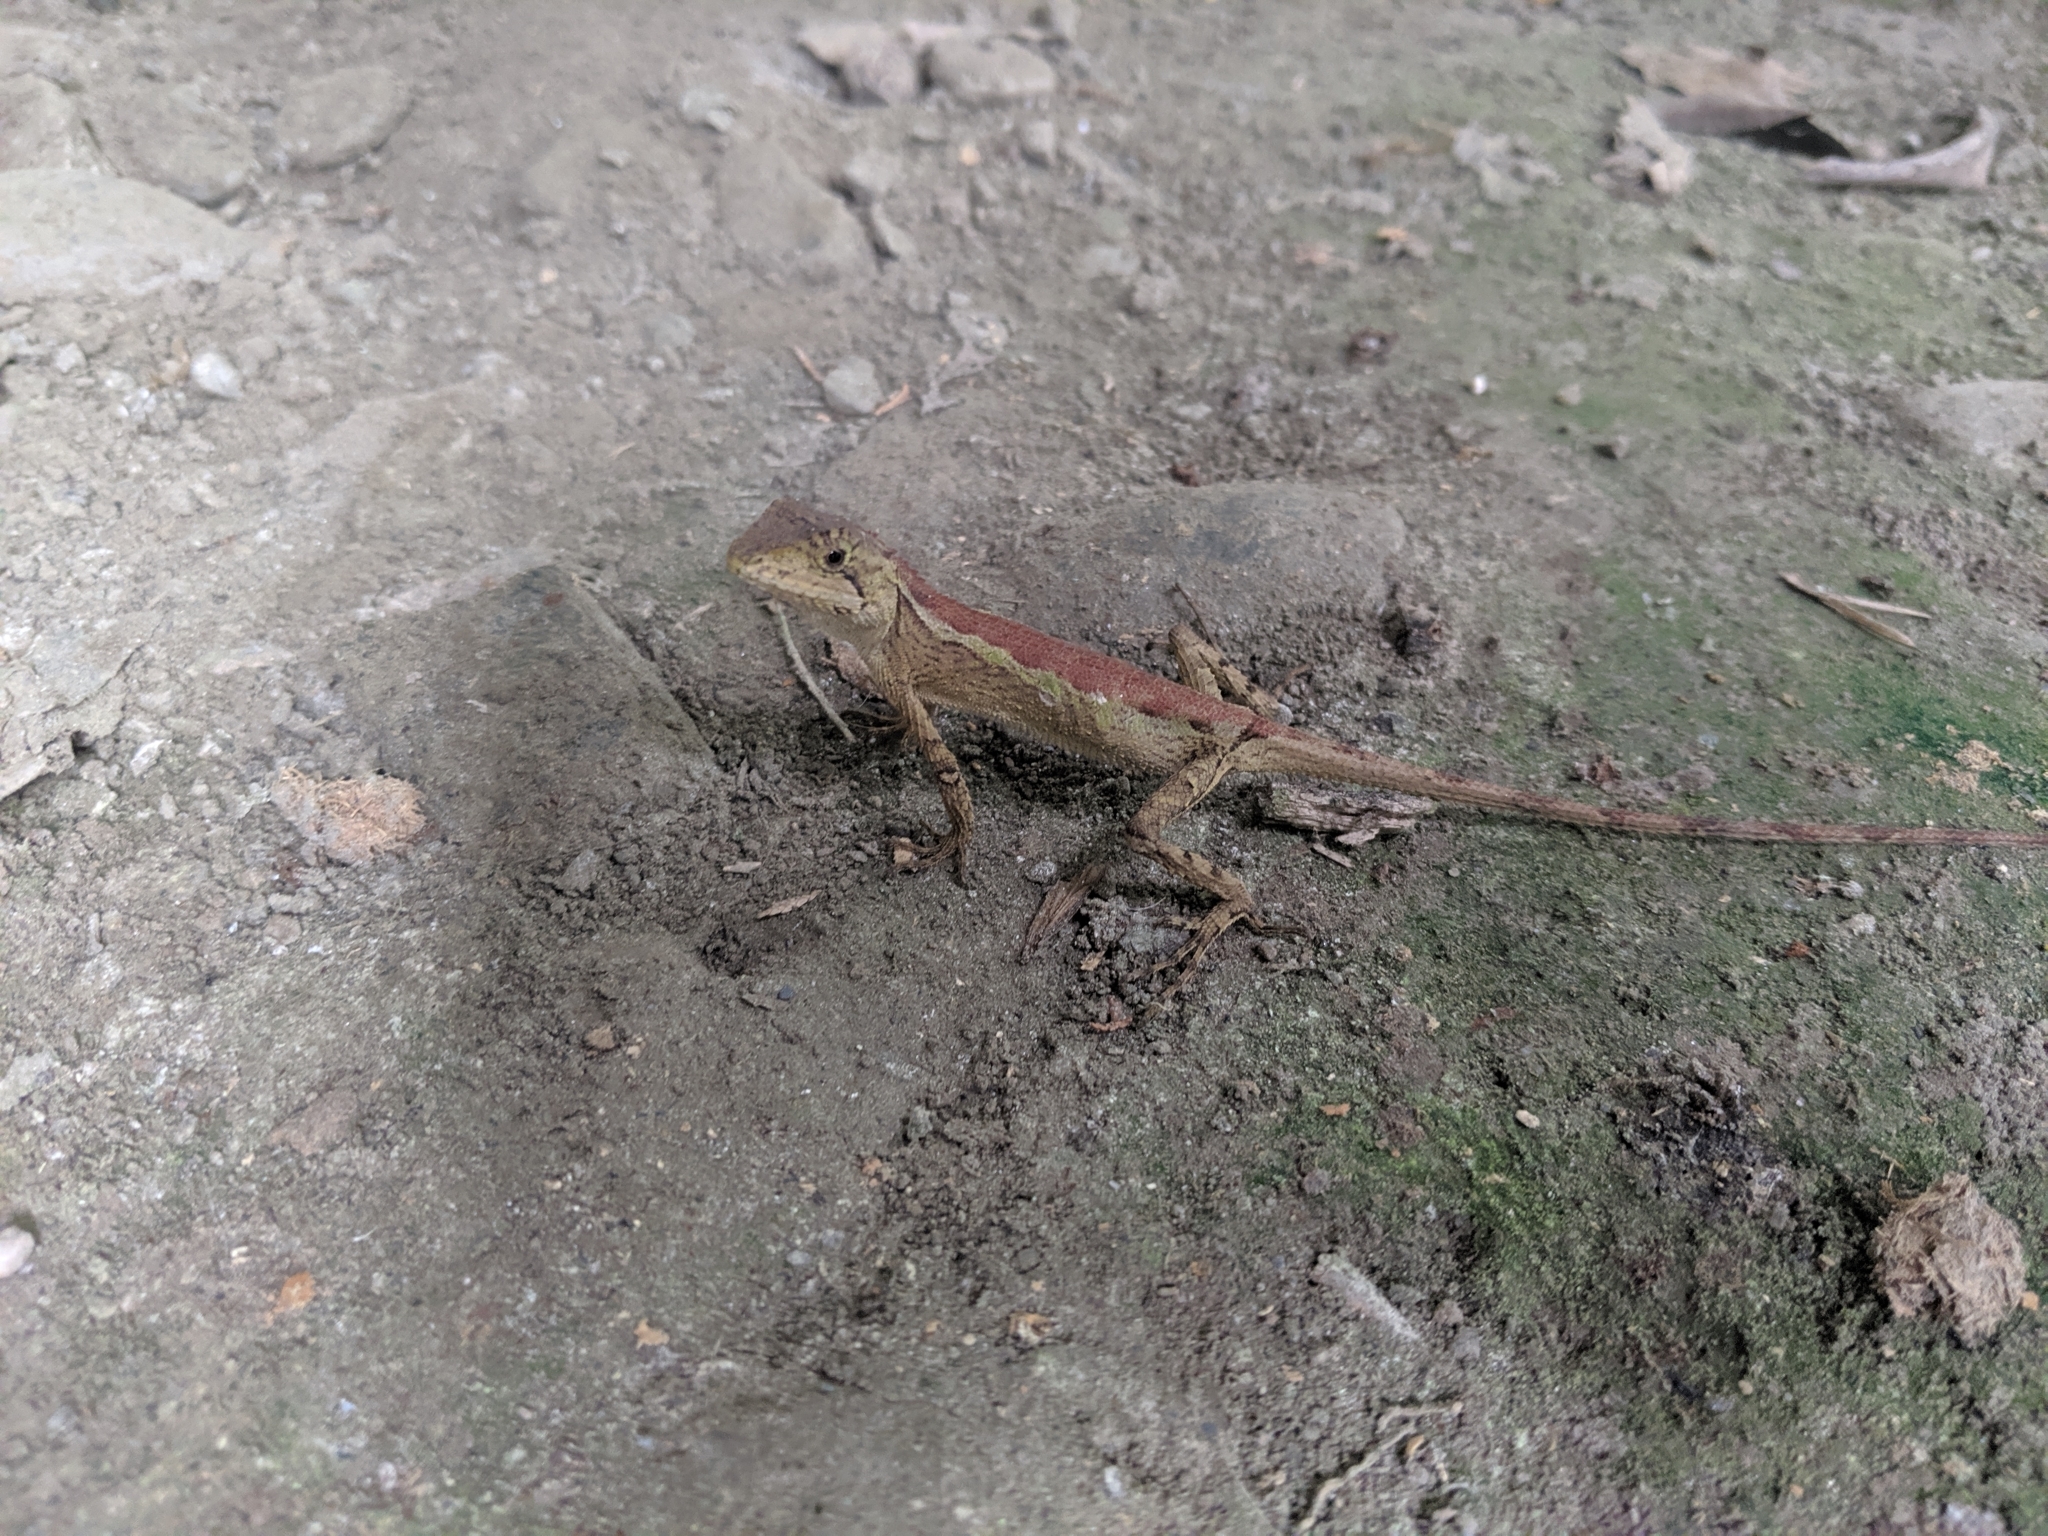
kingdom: Animalia
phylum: Chordata
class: Squamata
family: Agamidae
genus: Diploderma
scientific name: Diploderma swinhonis
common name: Taiwan japalure
